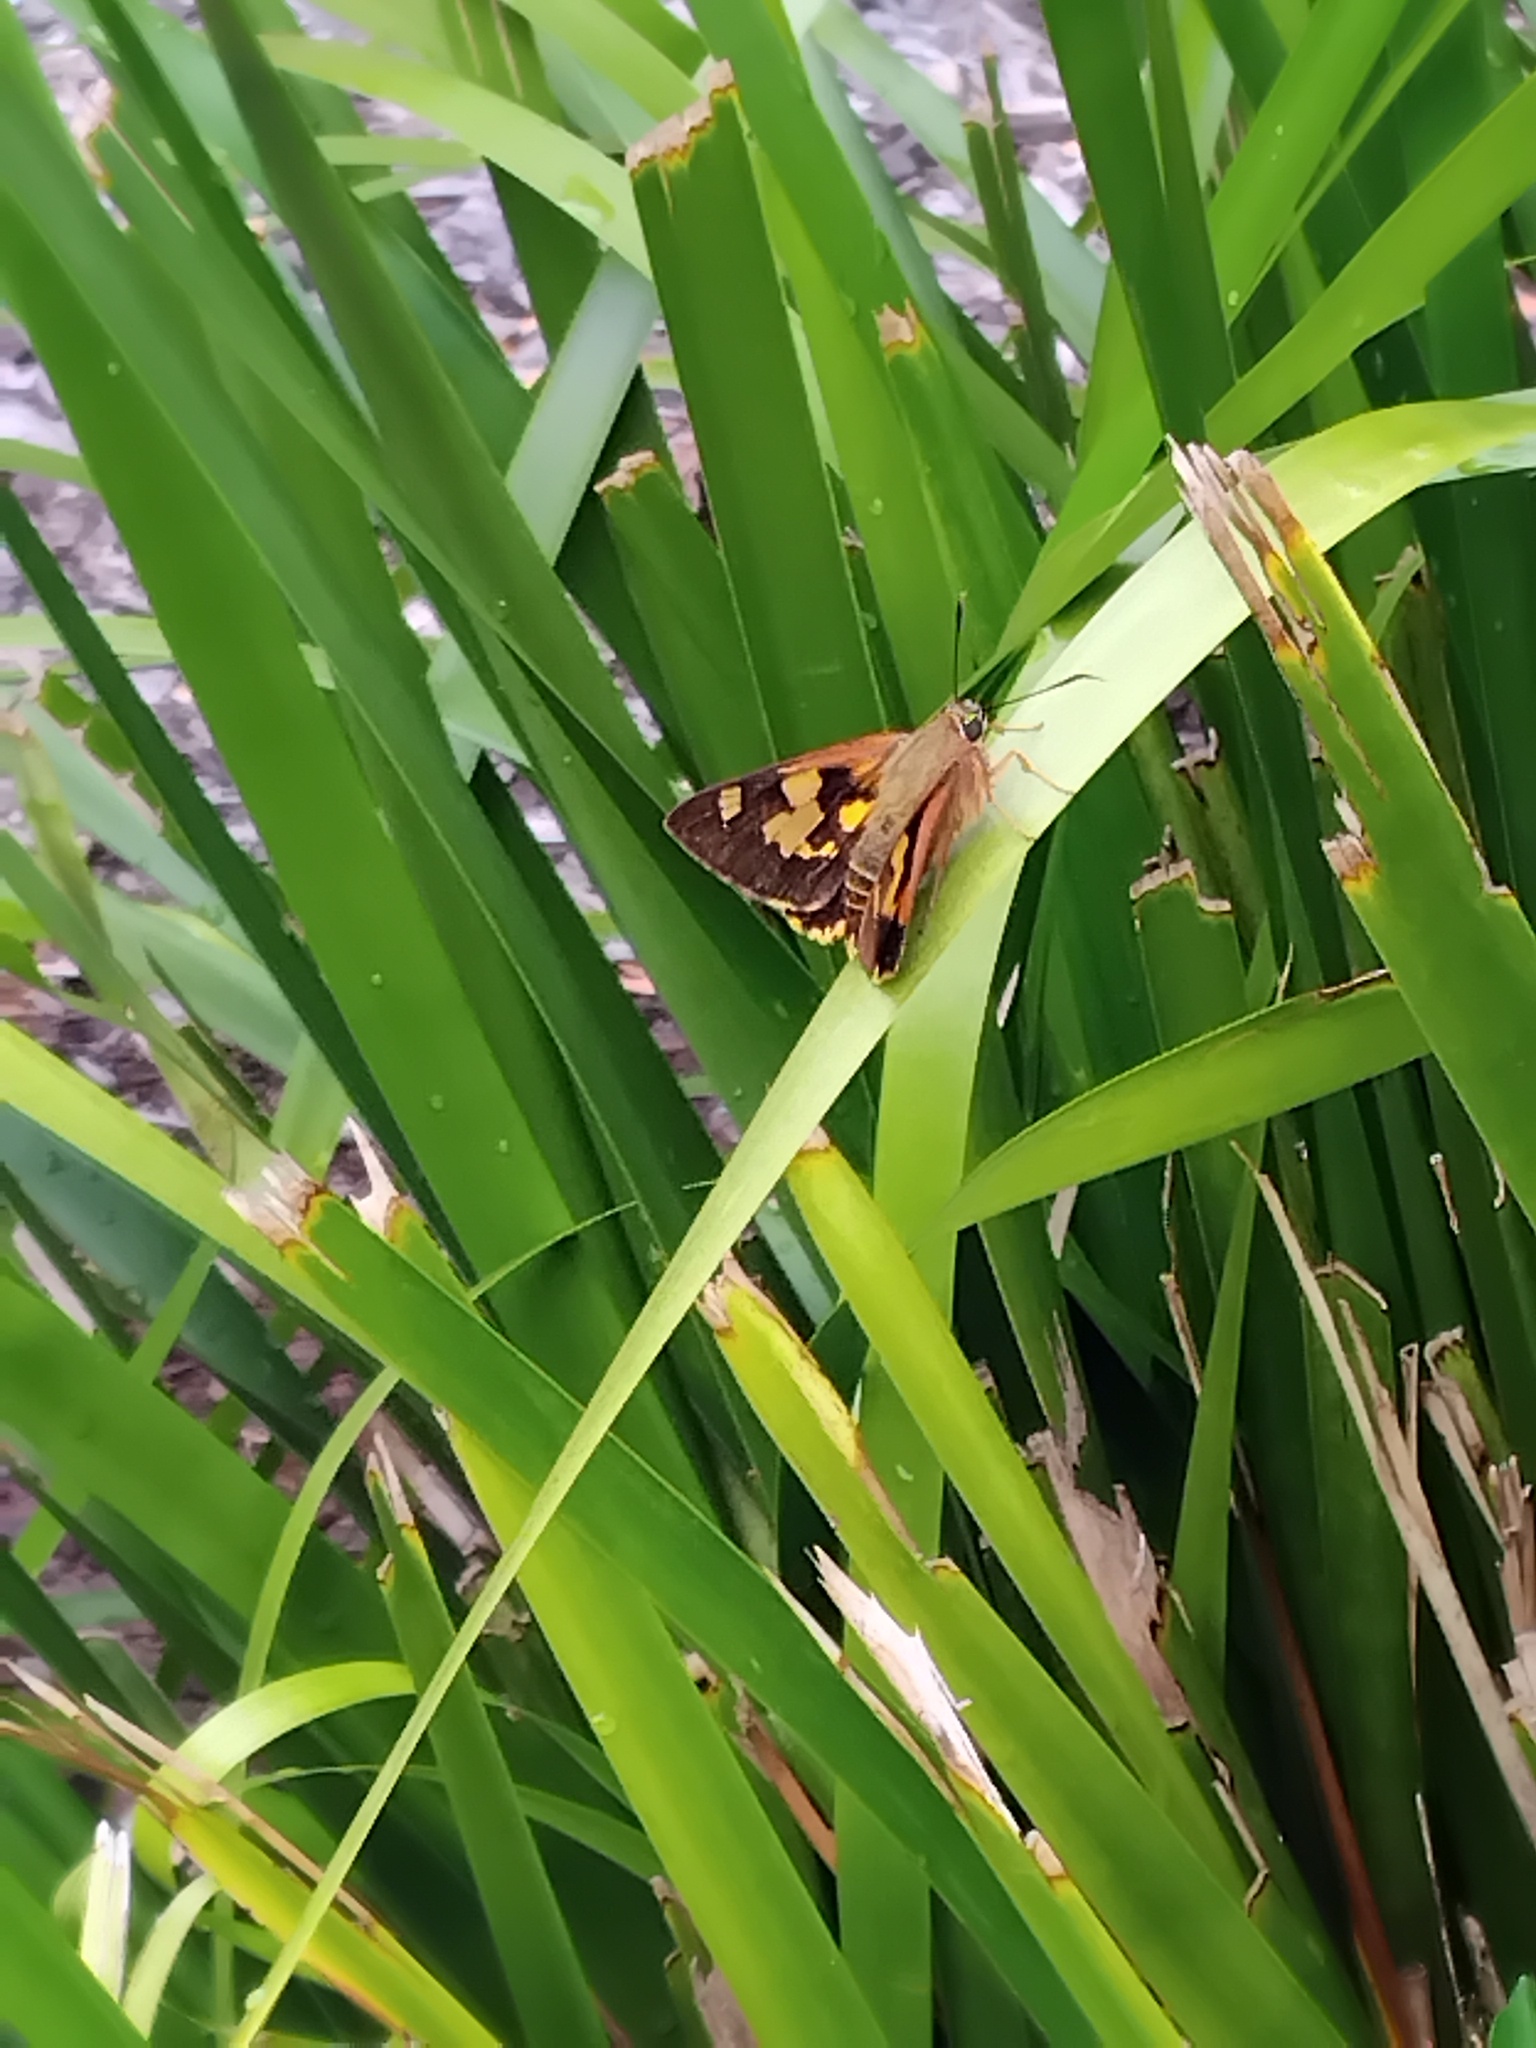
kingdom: Animalia
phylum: Arthropoda
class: Insecta
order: Lepidoptera
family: Hesperiidae
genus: Trapezites
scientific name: Trapezites symmomus
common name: Splendid ochre
